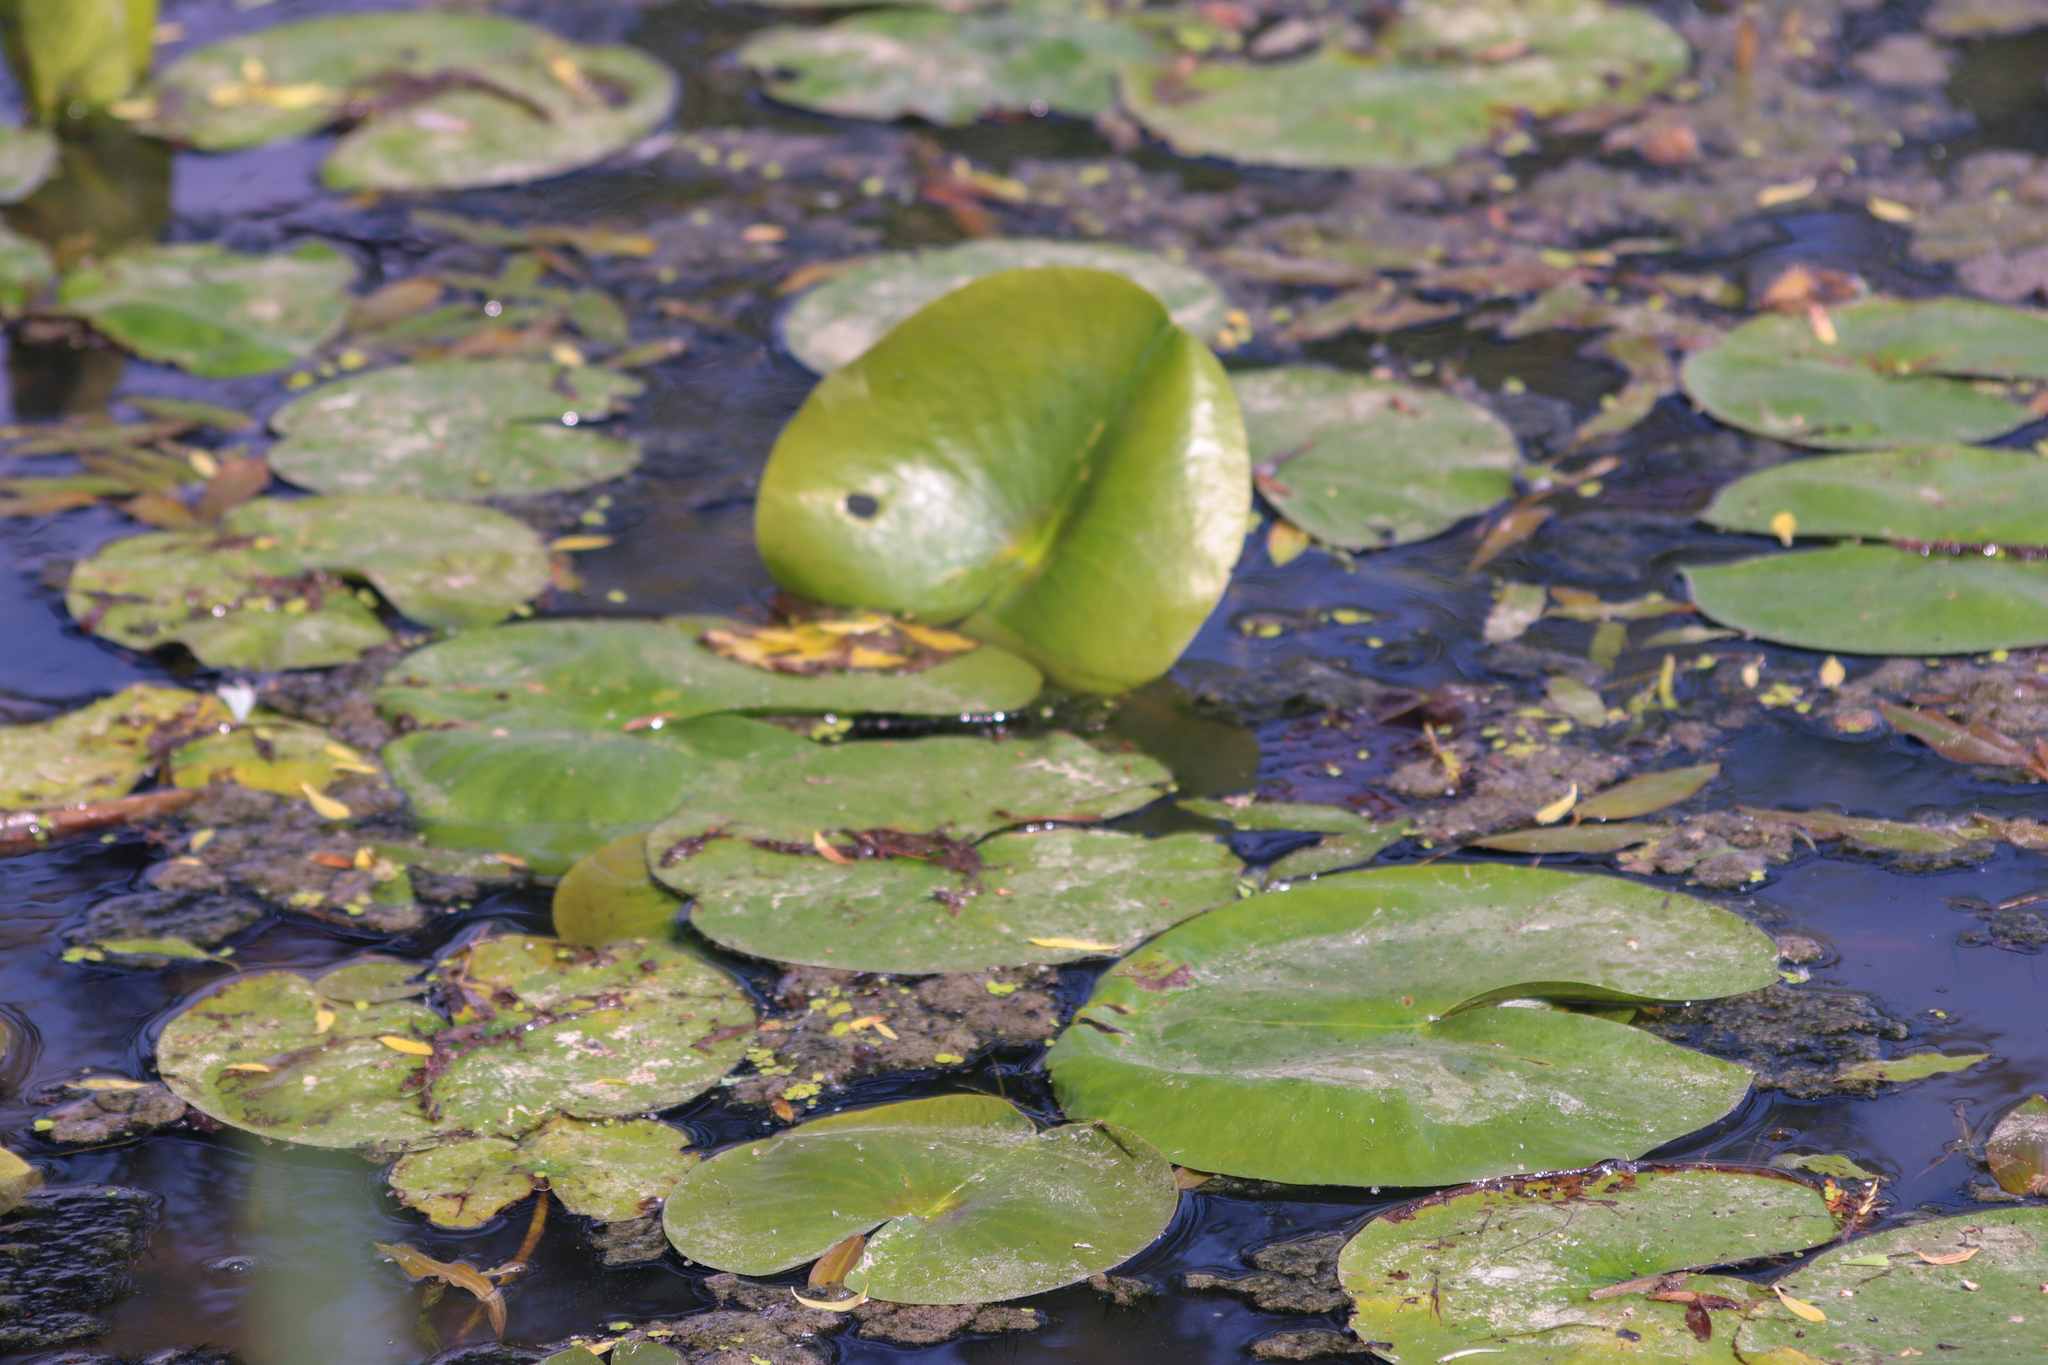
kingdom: Plantae
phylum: Tracheophyta
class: Magnoliopsida
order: Nymphaeales
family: Nymphaeaceae
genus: Nymphaea
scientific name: Nymphaea odorata
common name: Fragrant water-lily
